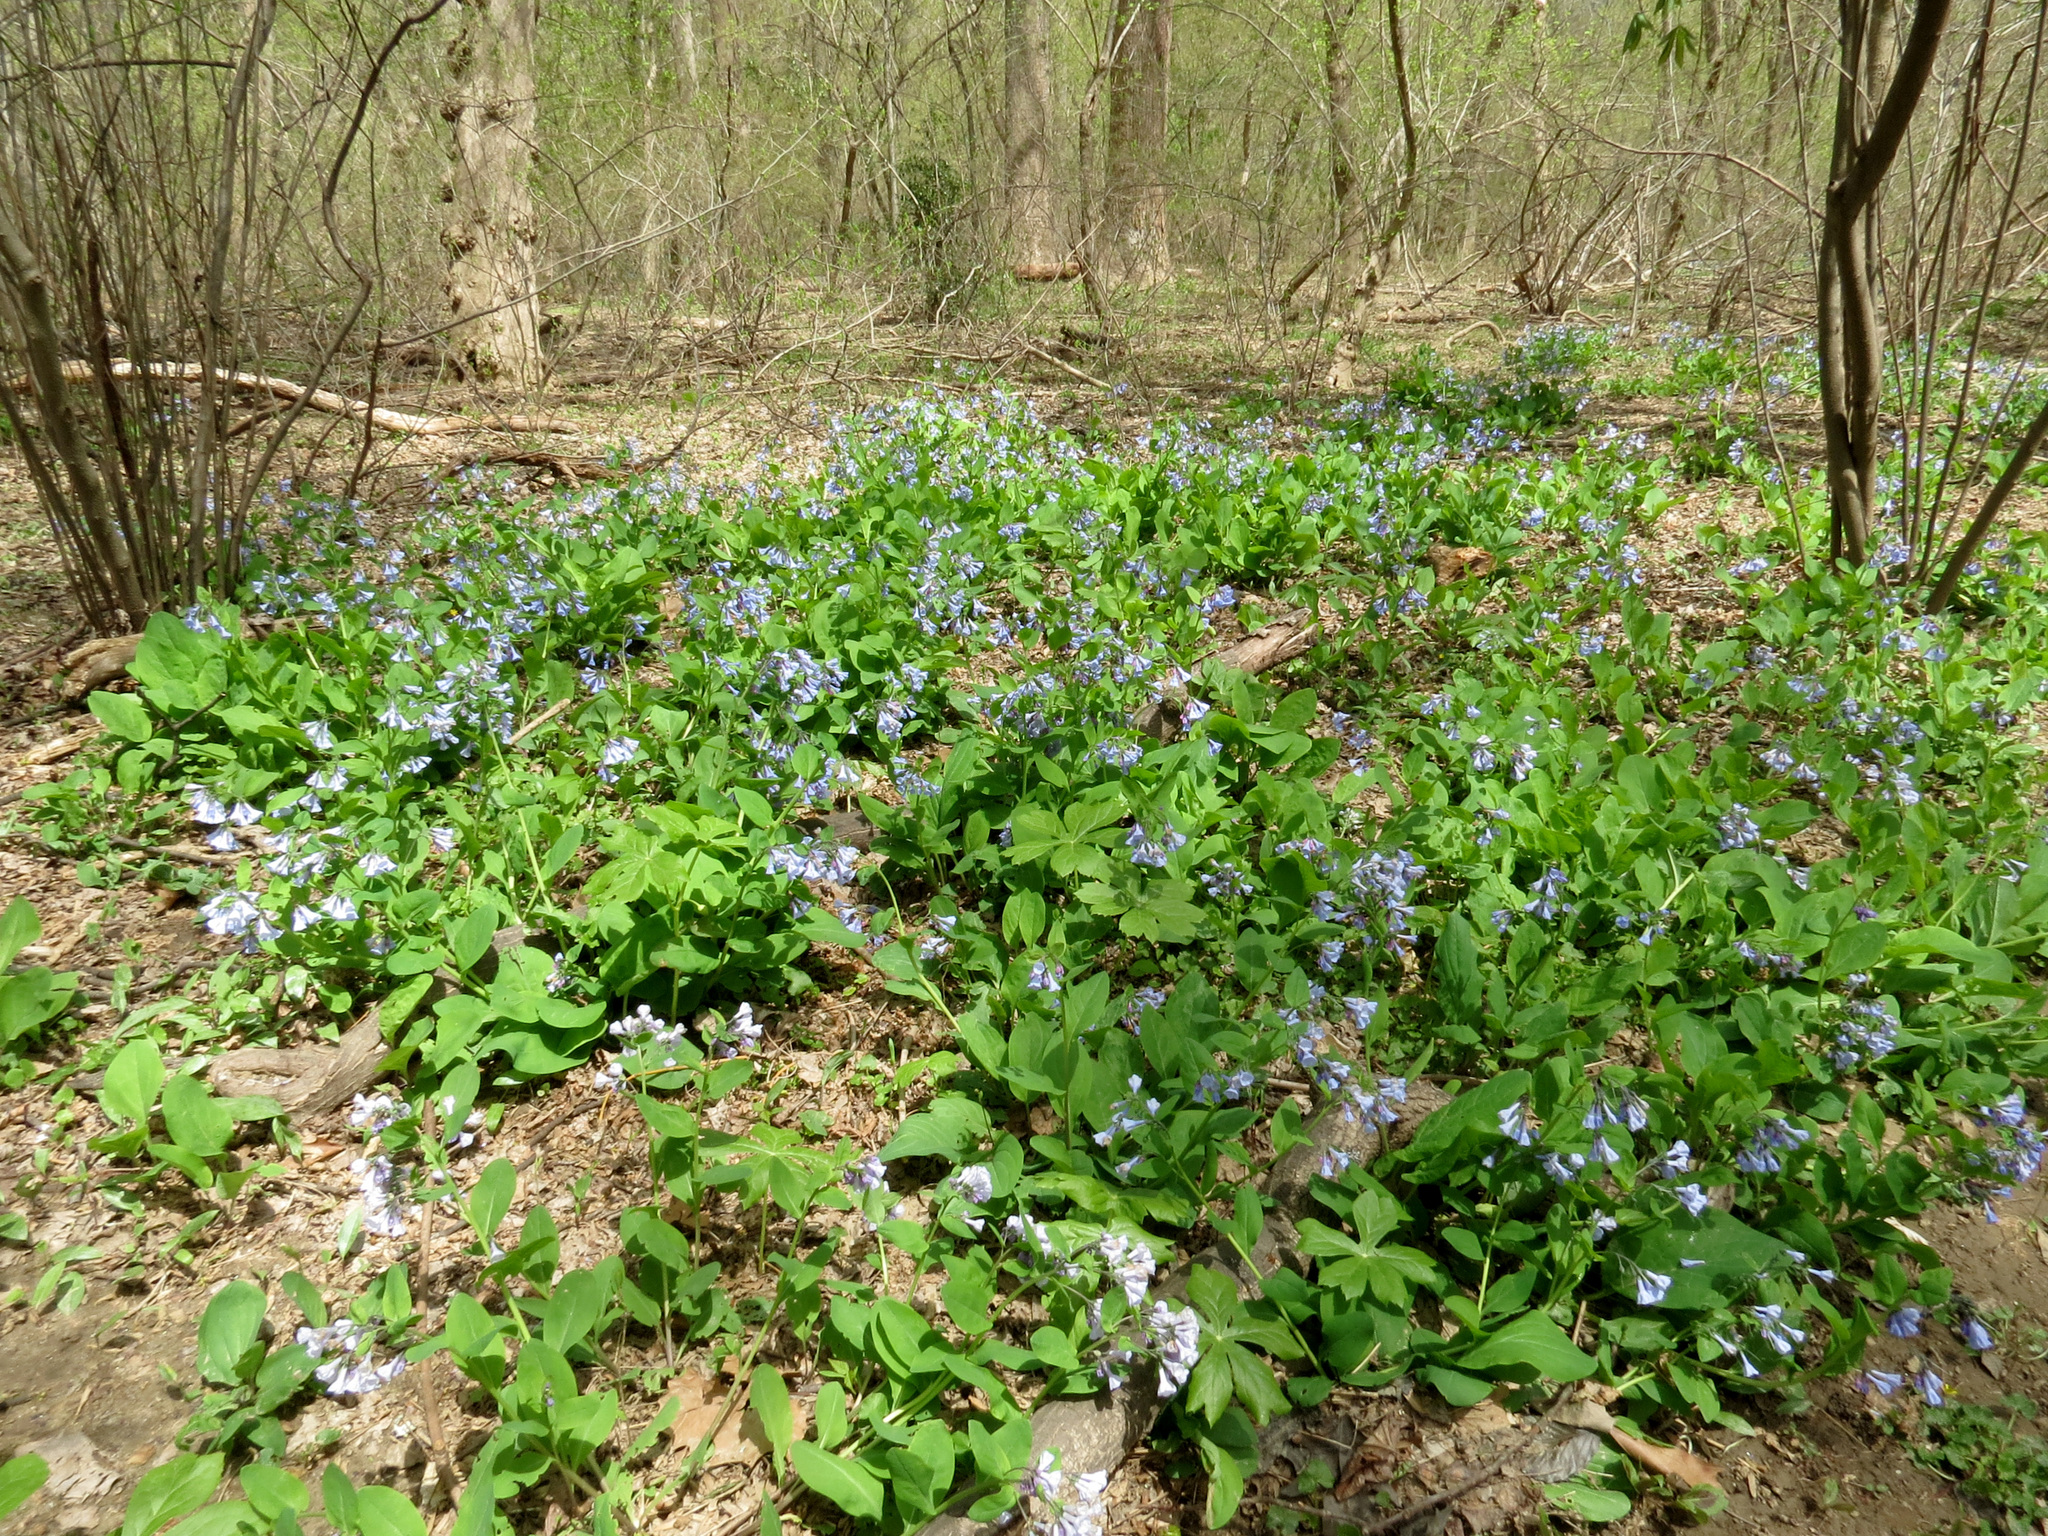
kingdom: Plantae
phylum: Tracheophyta
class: Magnoliopsida
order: Boraginales
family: Boraginaceae
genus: Mertensia
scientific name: Mertensia virginica
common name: Virginia bluebells
